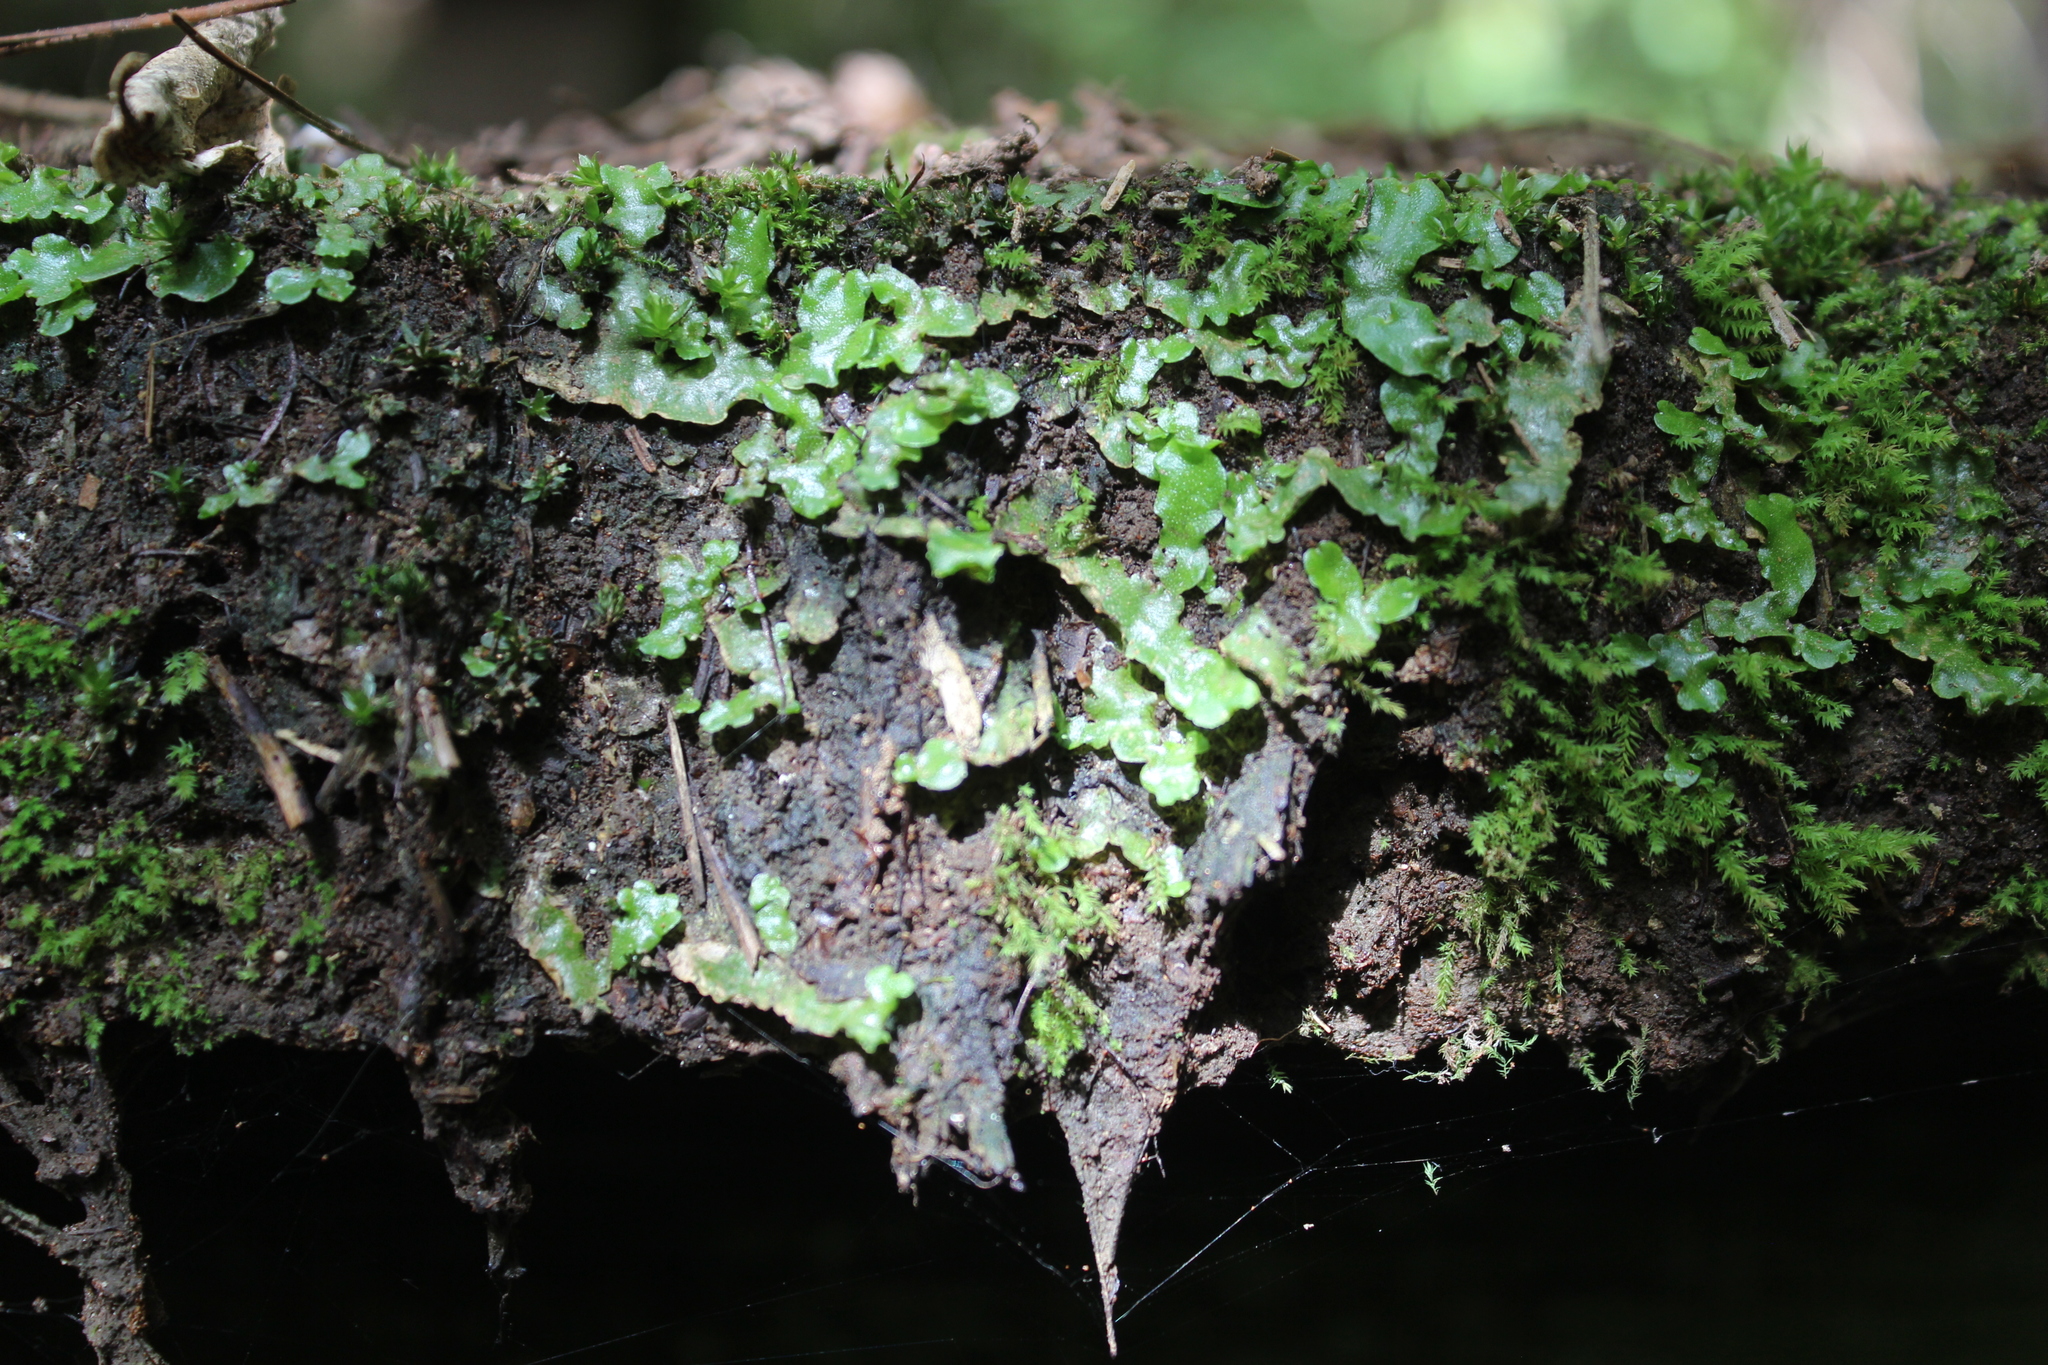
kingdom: Plantae
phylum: Marchantiophyta
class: Marchantiopsida
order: Marchantiales
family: Aytoniaceae
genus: Asterella
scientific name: Asterella tenera
